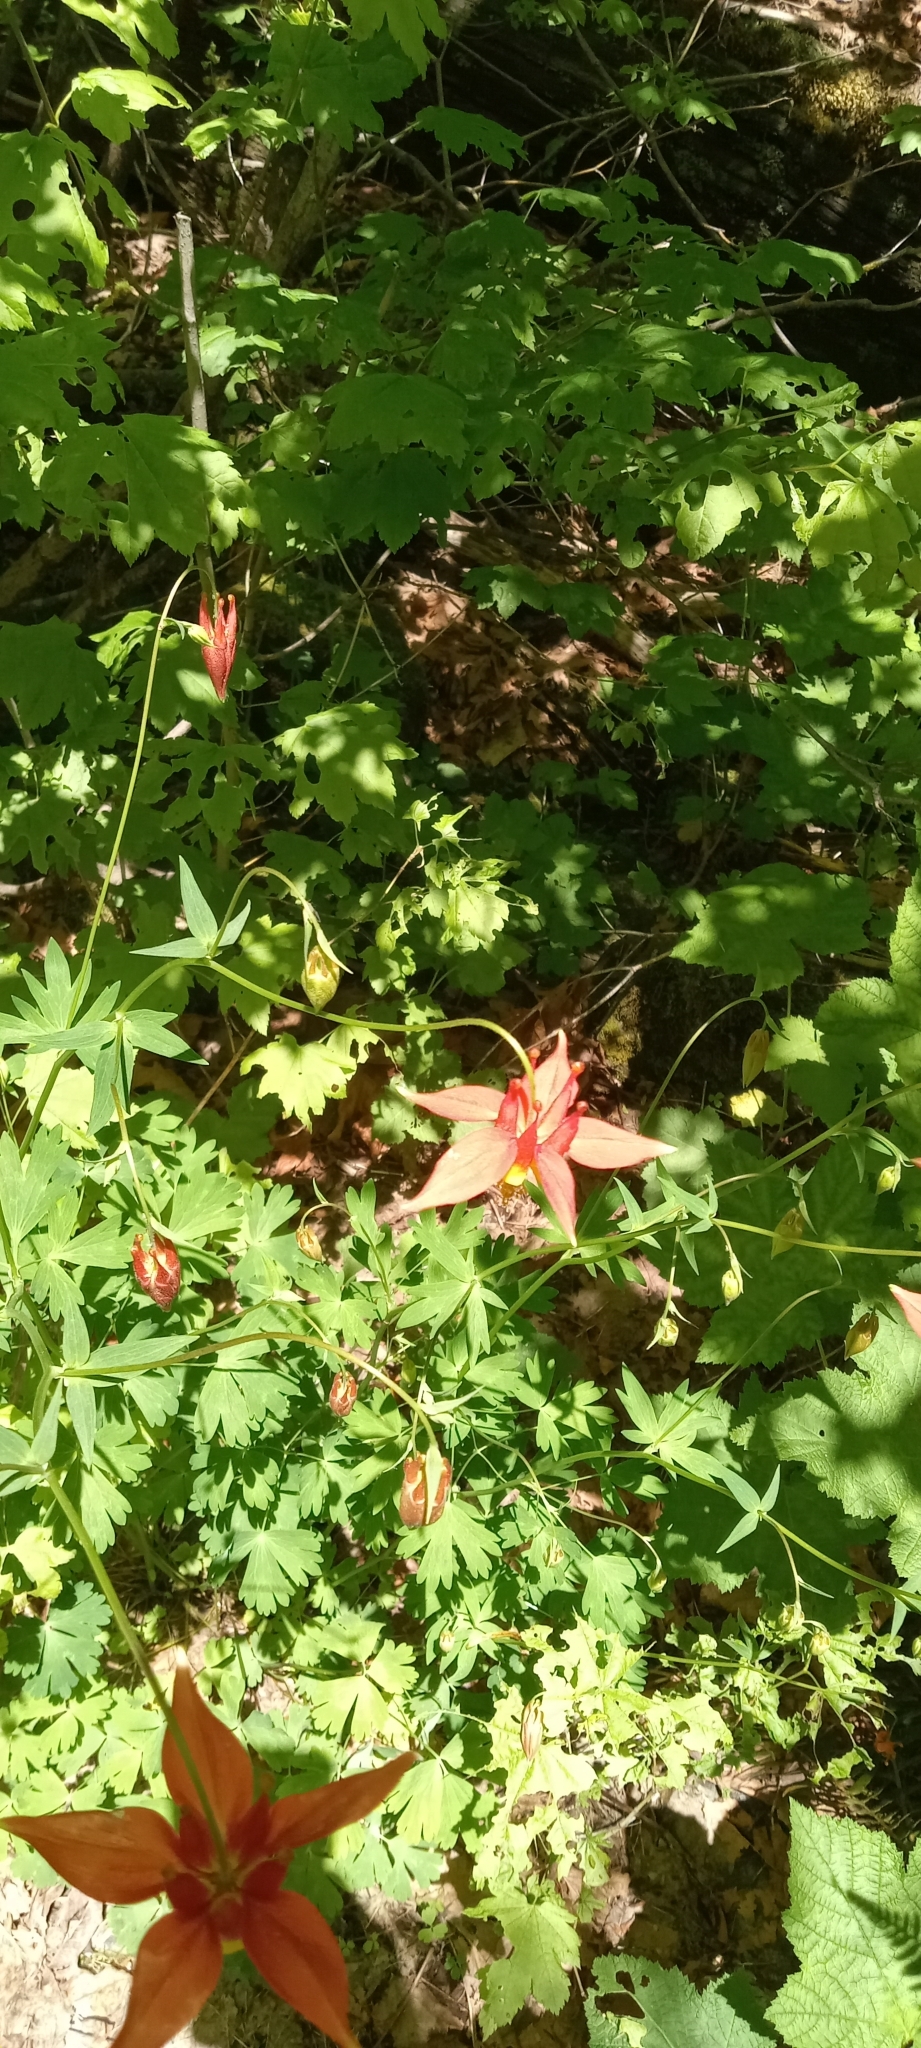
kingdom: Plantae
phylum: Tracheophyta
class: Magnoliopsida
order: Ranunculales
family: Ranunculaceae
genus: Aquilegia
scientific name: Aquilegia formosa
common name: Sitka columbine
